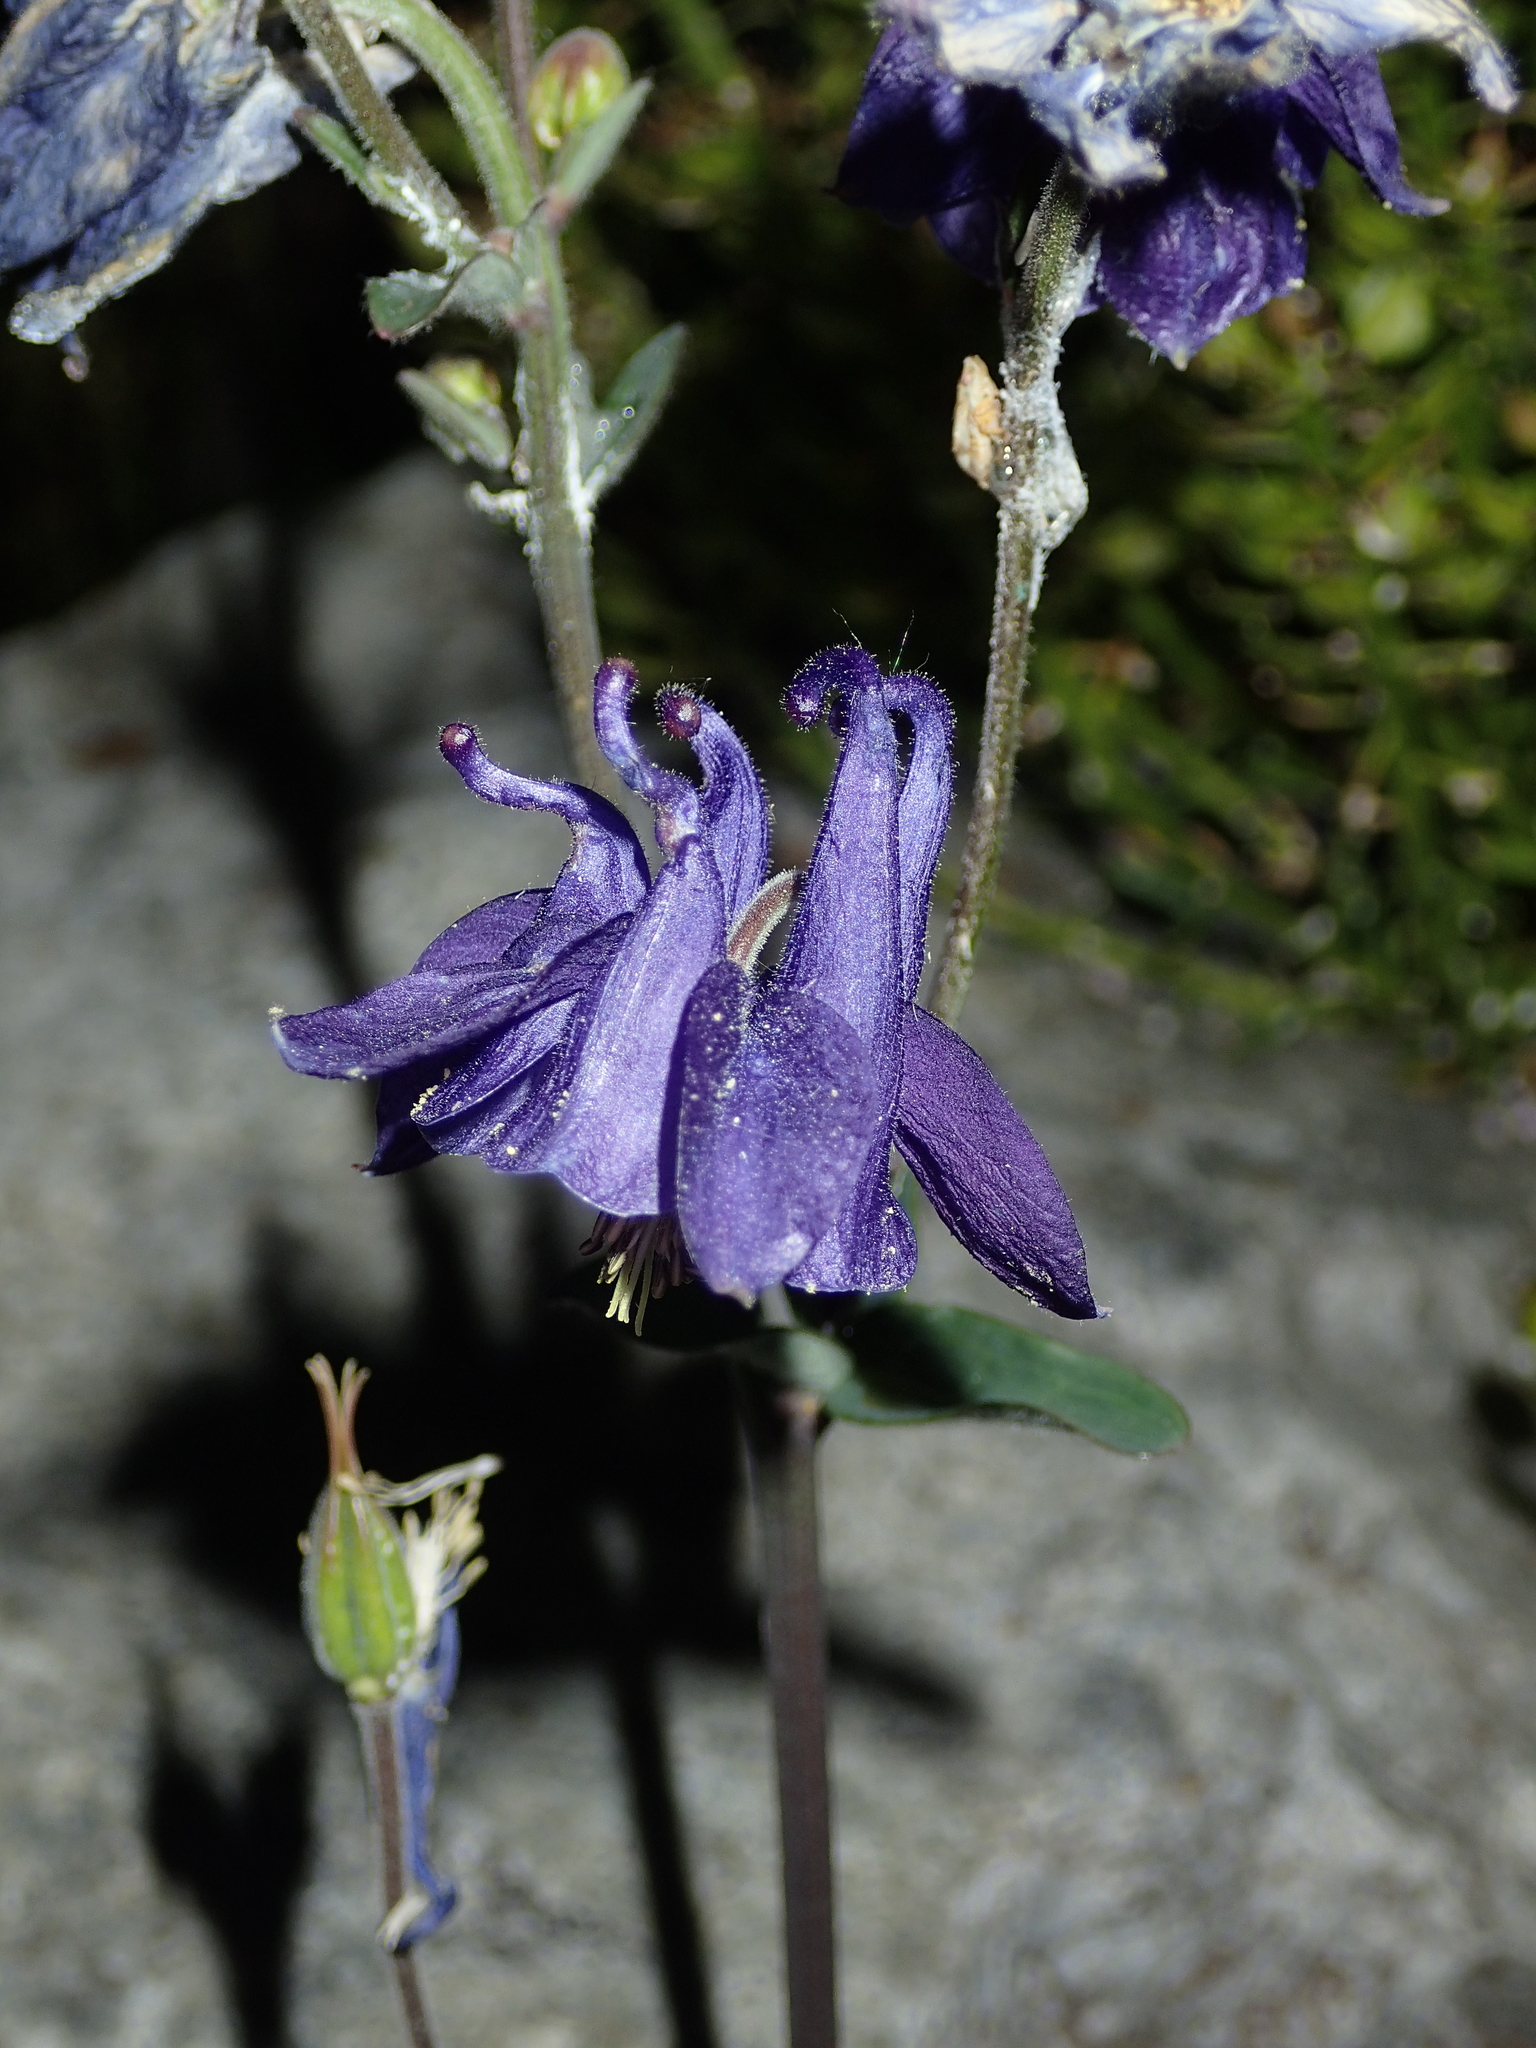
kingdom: Plantae
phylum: Tracheophyta
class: Magnoliopsida
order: Ranunculales
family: Ranunculaceae
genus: Aquilegia
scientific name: Aquilegia vulgaris
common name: Columbine
